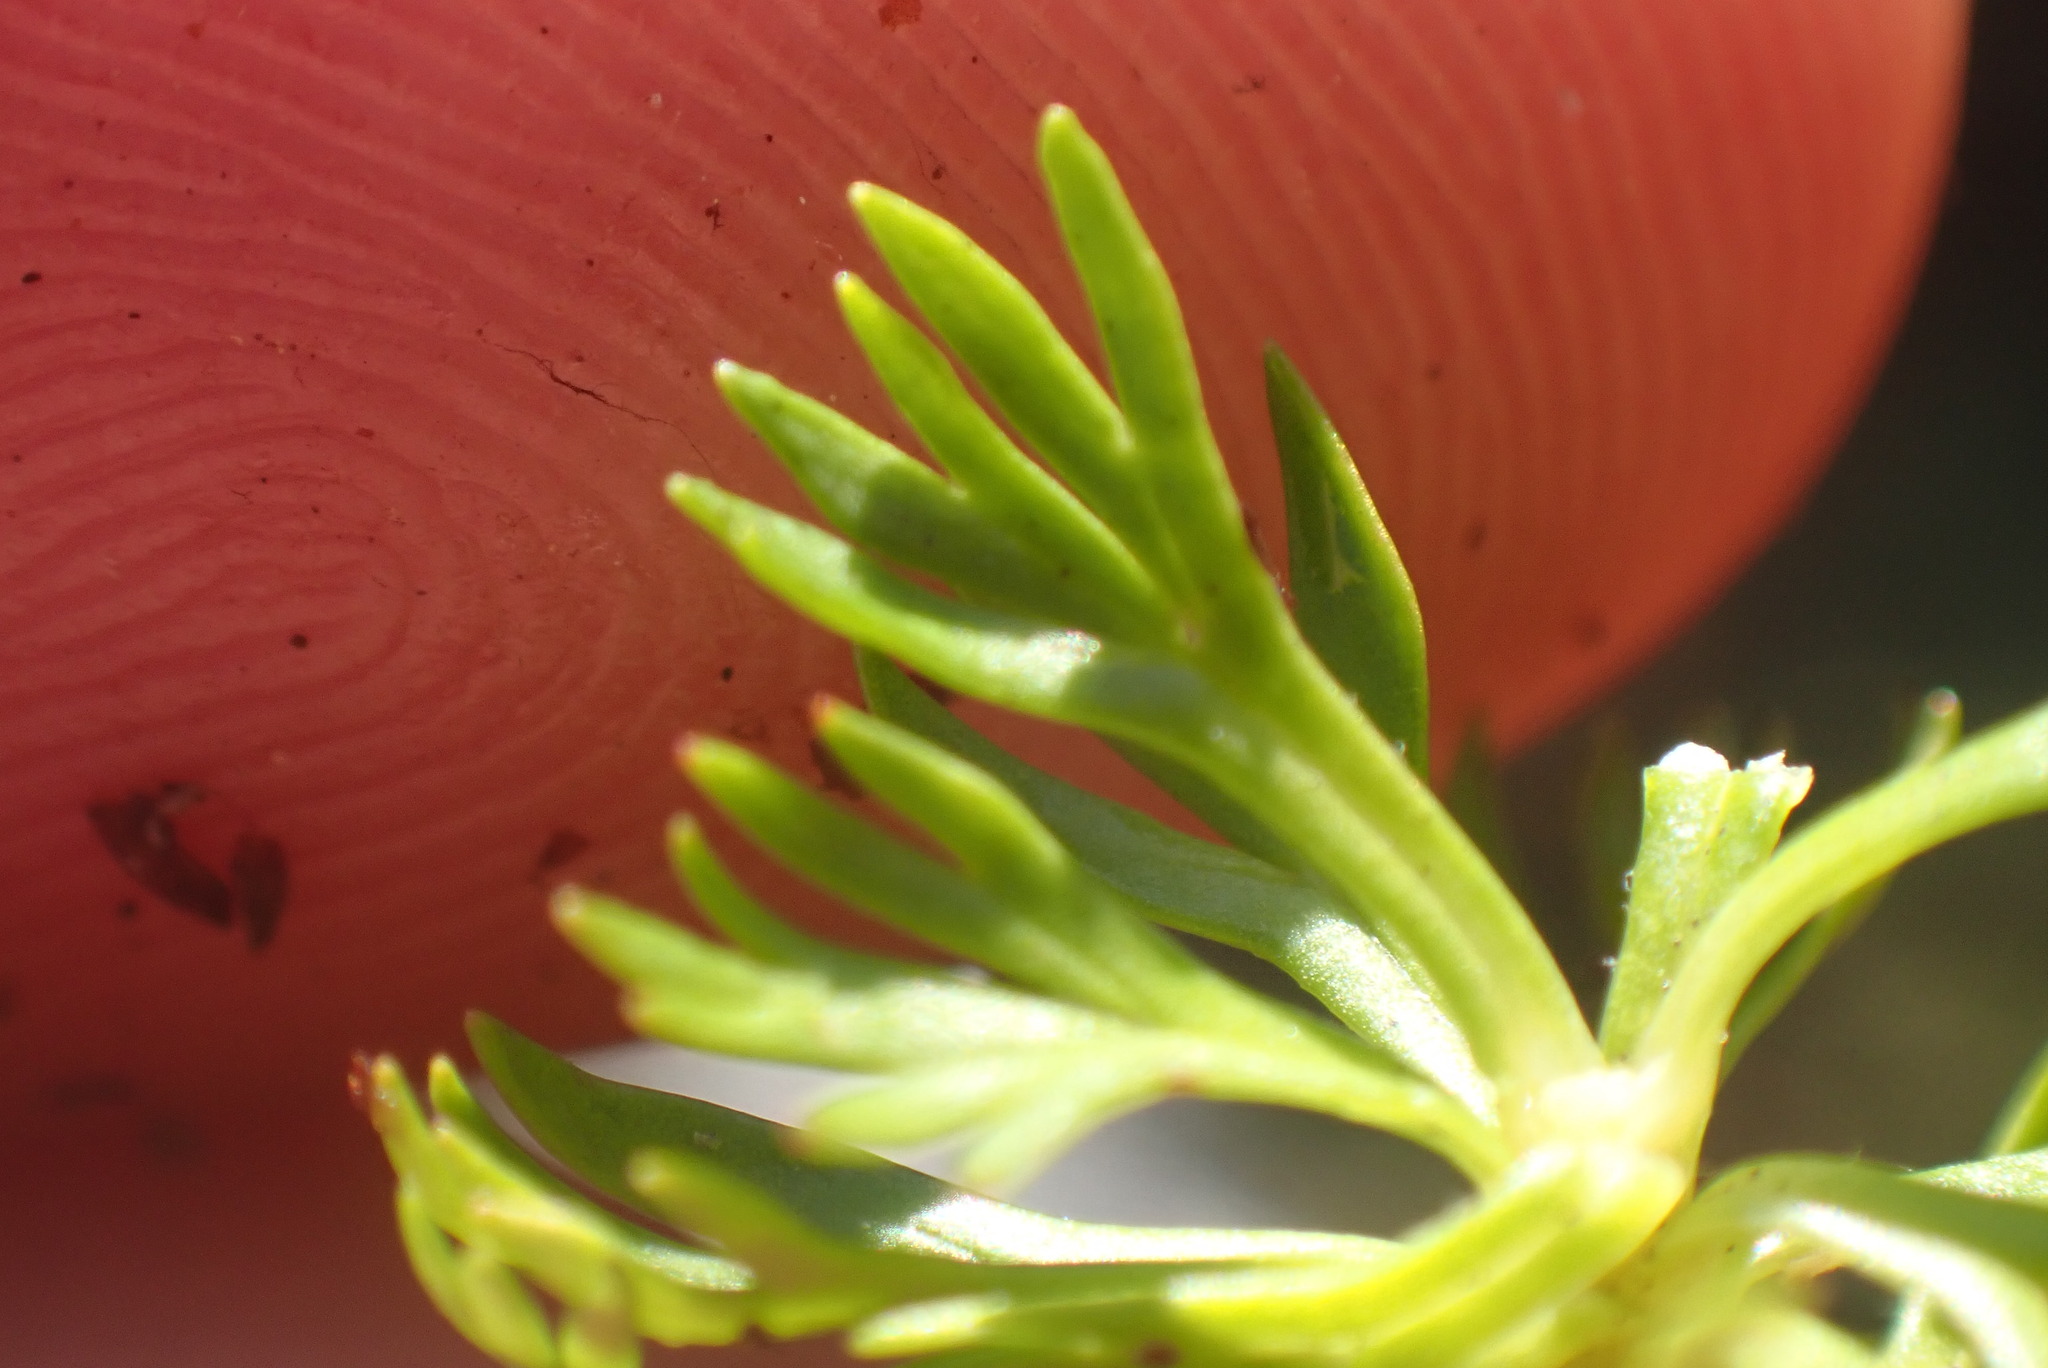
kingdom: Plantae
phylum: Tracheophyta
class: Magnoliopsida
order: Saxifragales
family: Saxifragaceae
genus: Saxifraga
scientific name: Saxifraga cespitosa
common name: Tufted saxifrage
